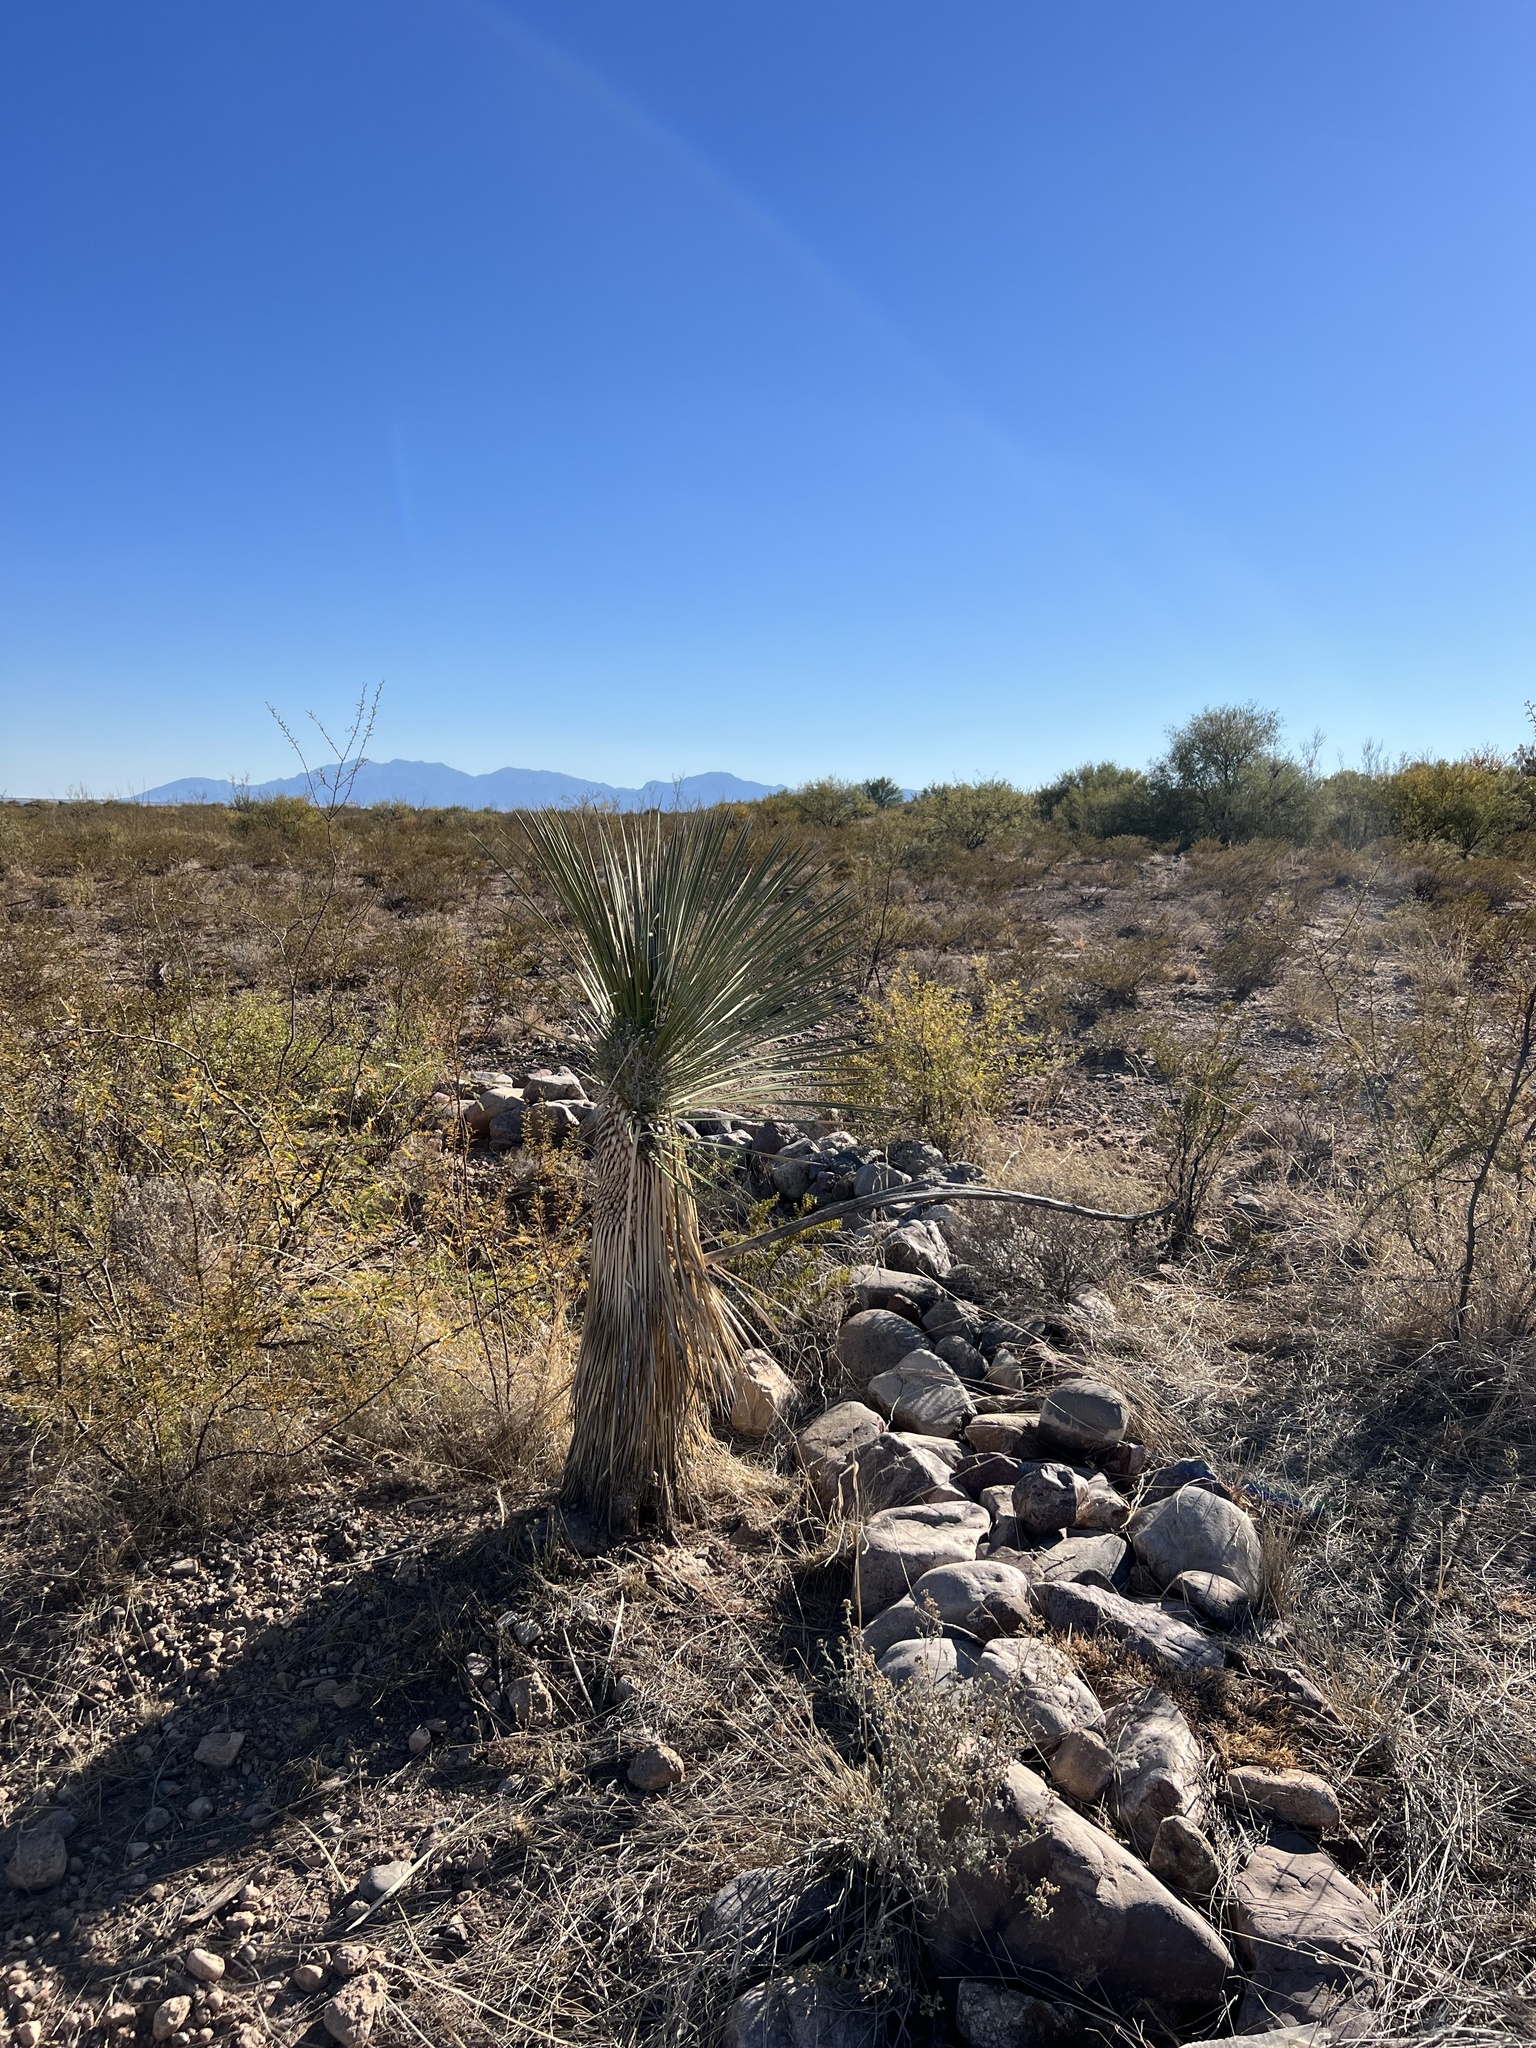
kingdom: Plantae
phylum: Tracheophyta
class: Liliopsida
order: Asparagales
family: Asparagaceae
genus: Yucca
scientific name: Yucca elata
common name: Palmella
